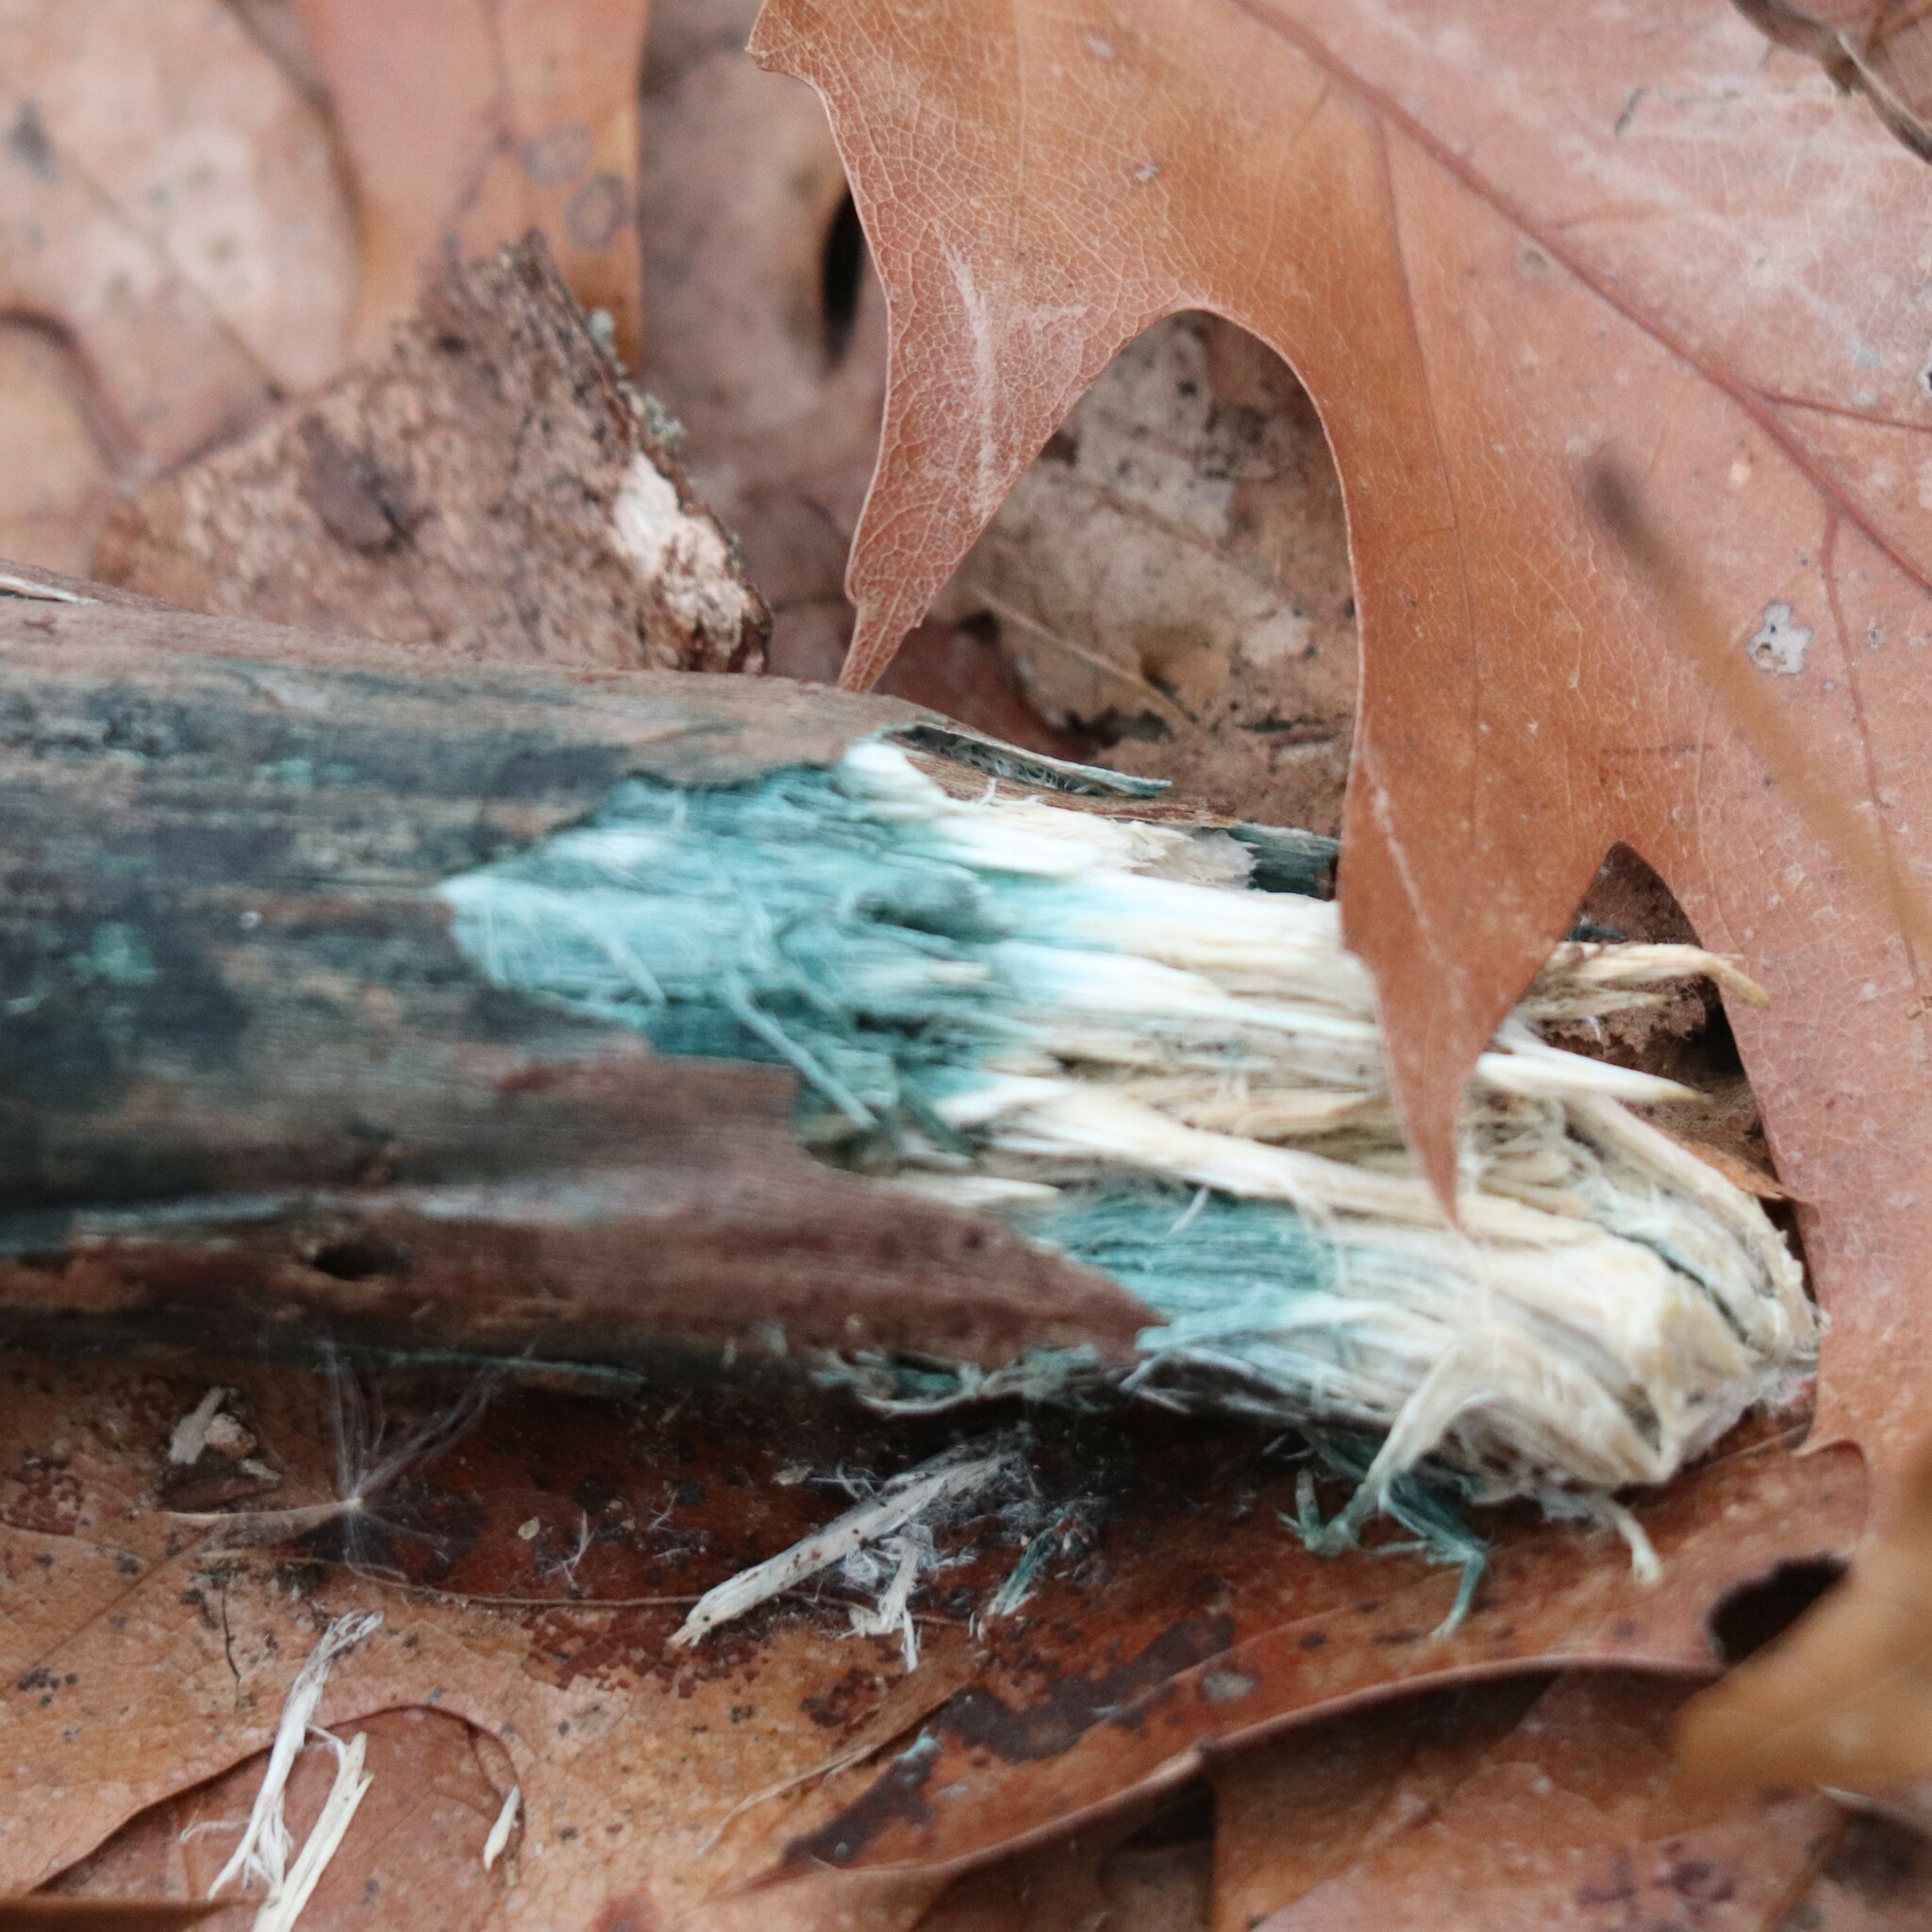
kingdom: Fungi
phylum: Ascomycota
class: Leotiomycetes
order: Helotiales
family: Chlorociboriaceae
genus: Chlorociboria
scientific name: Chlorociboria
